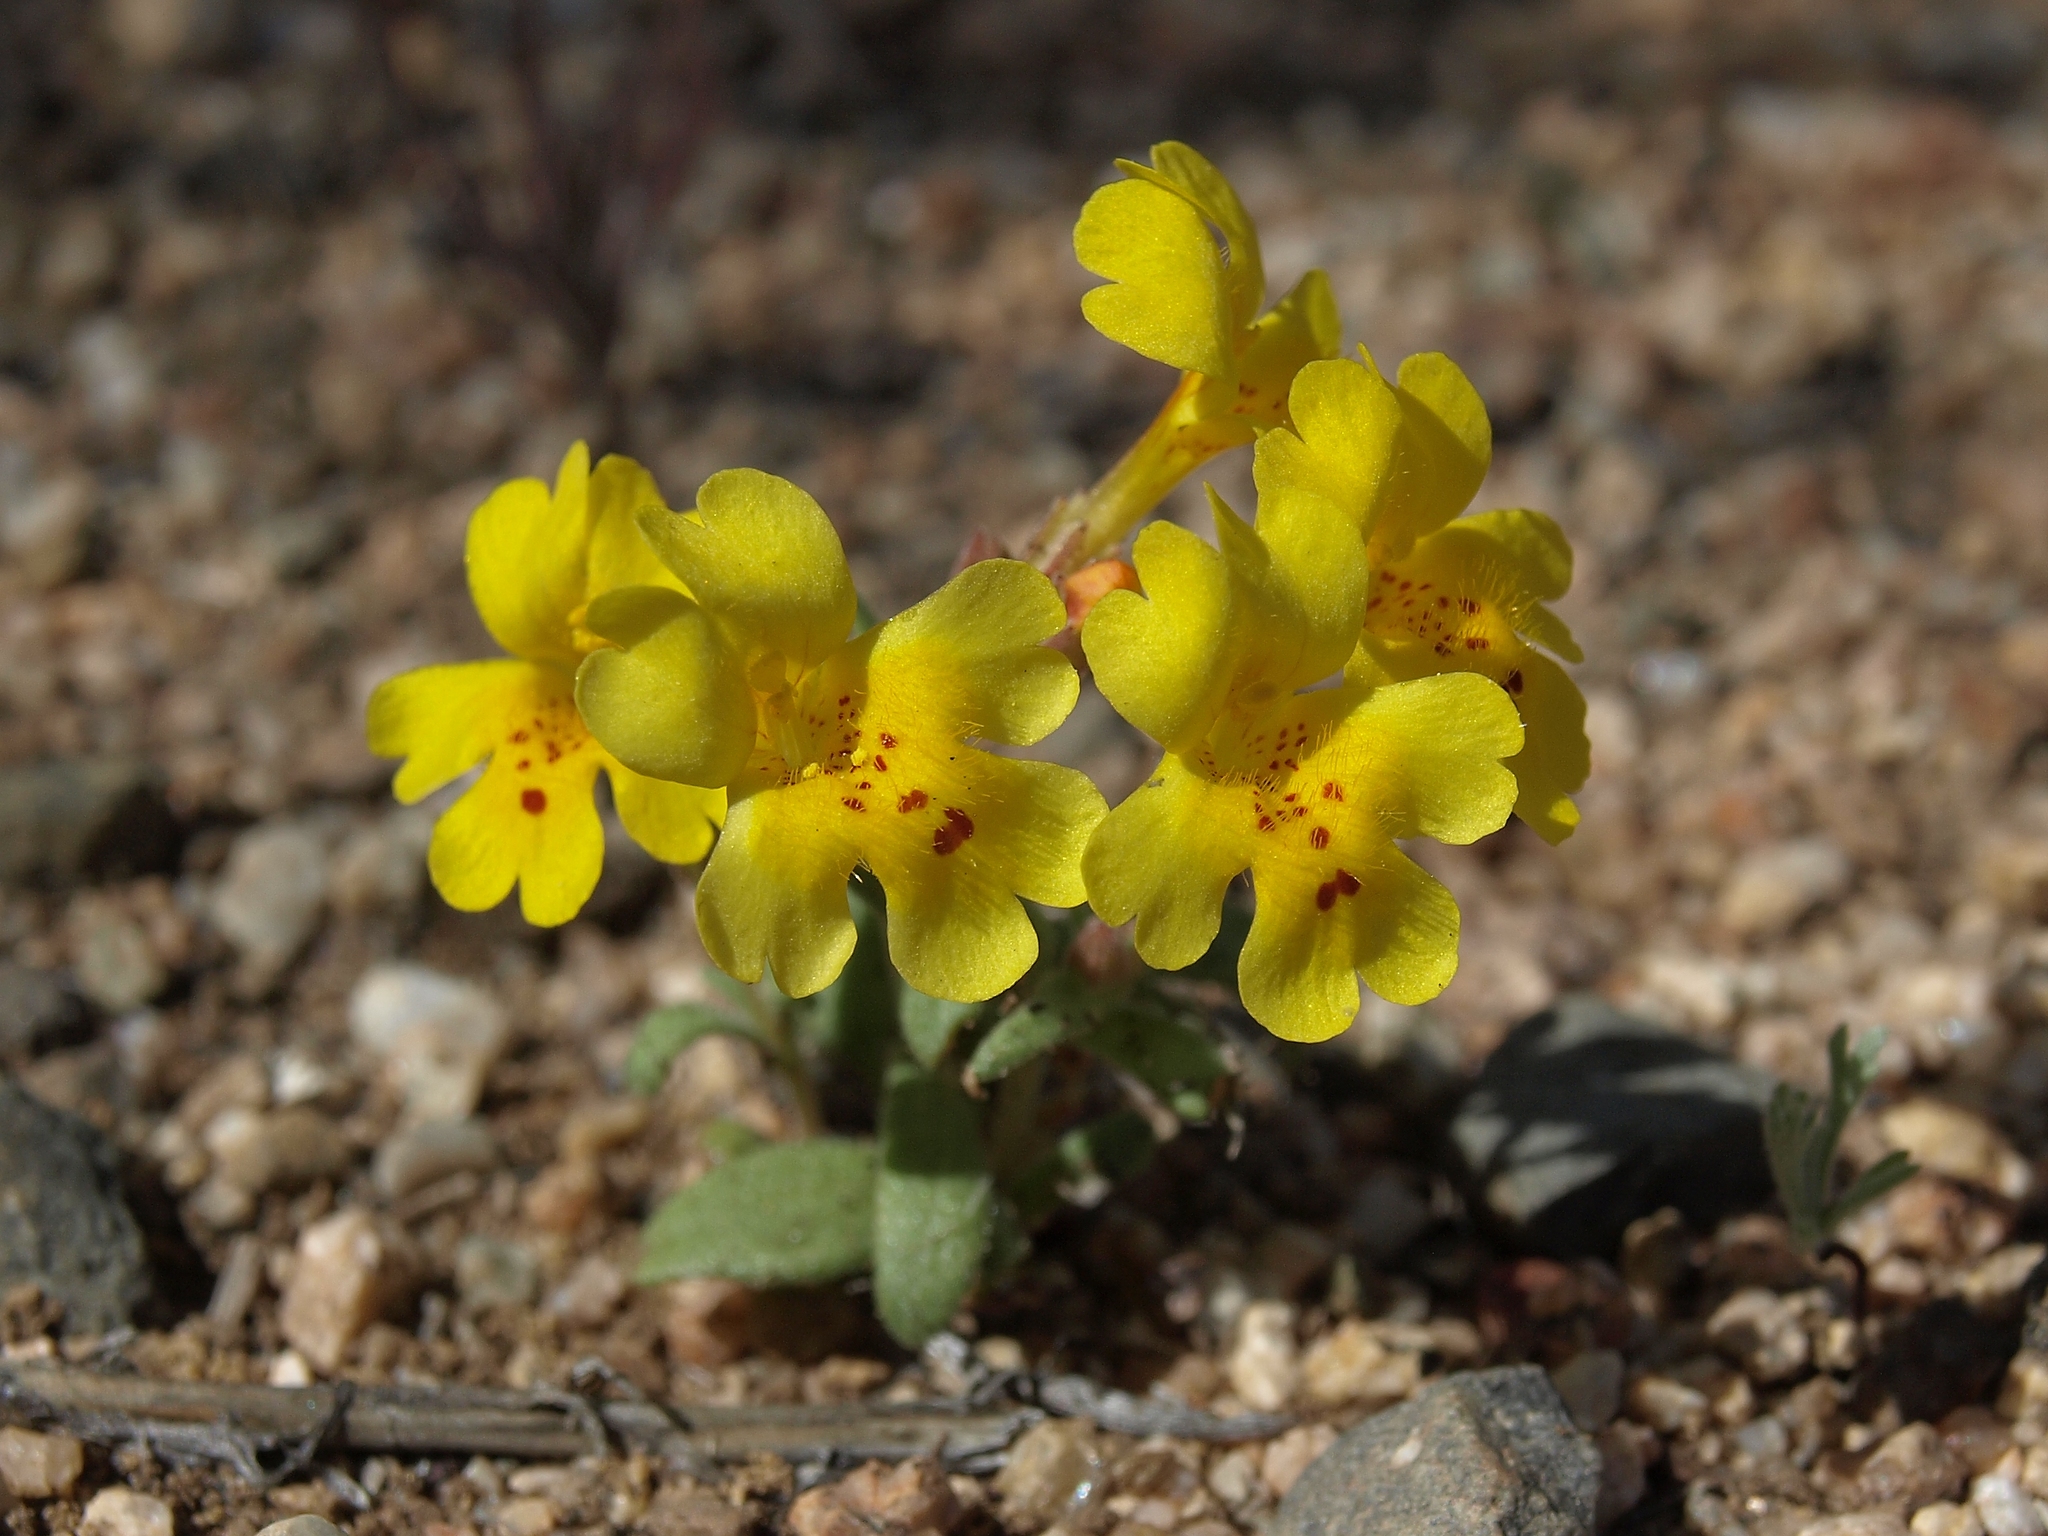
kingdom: Plantae
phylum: Tracheophyta
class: Magnoliopsida
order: Lamiales
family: Phrymaceae
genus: Erythranthe
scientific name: Erythranthe carsonensis
